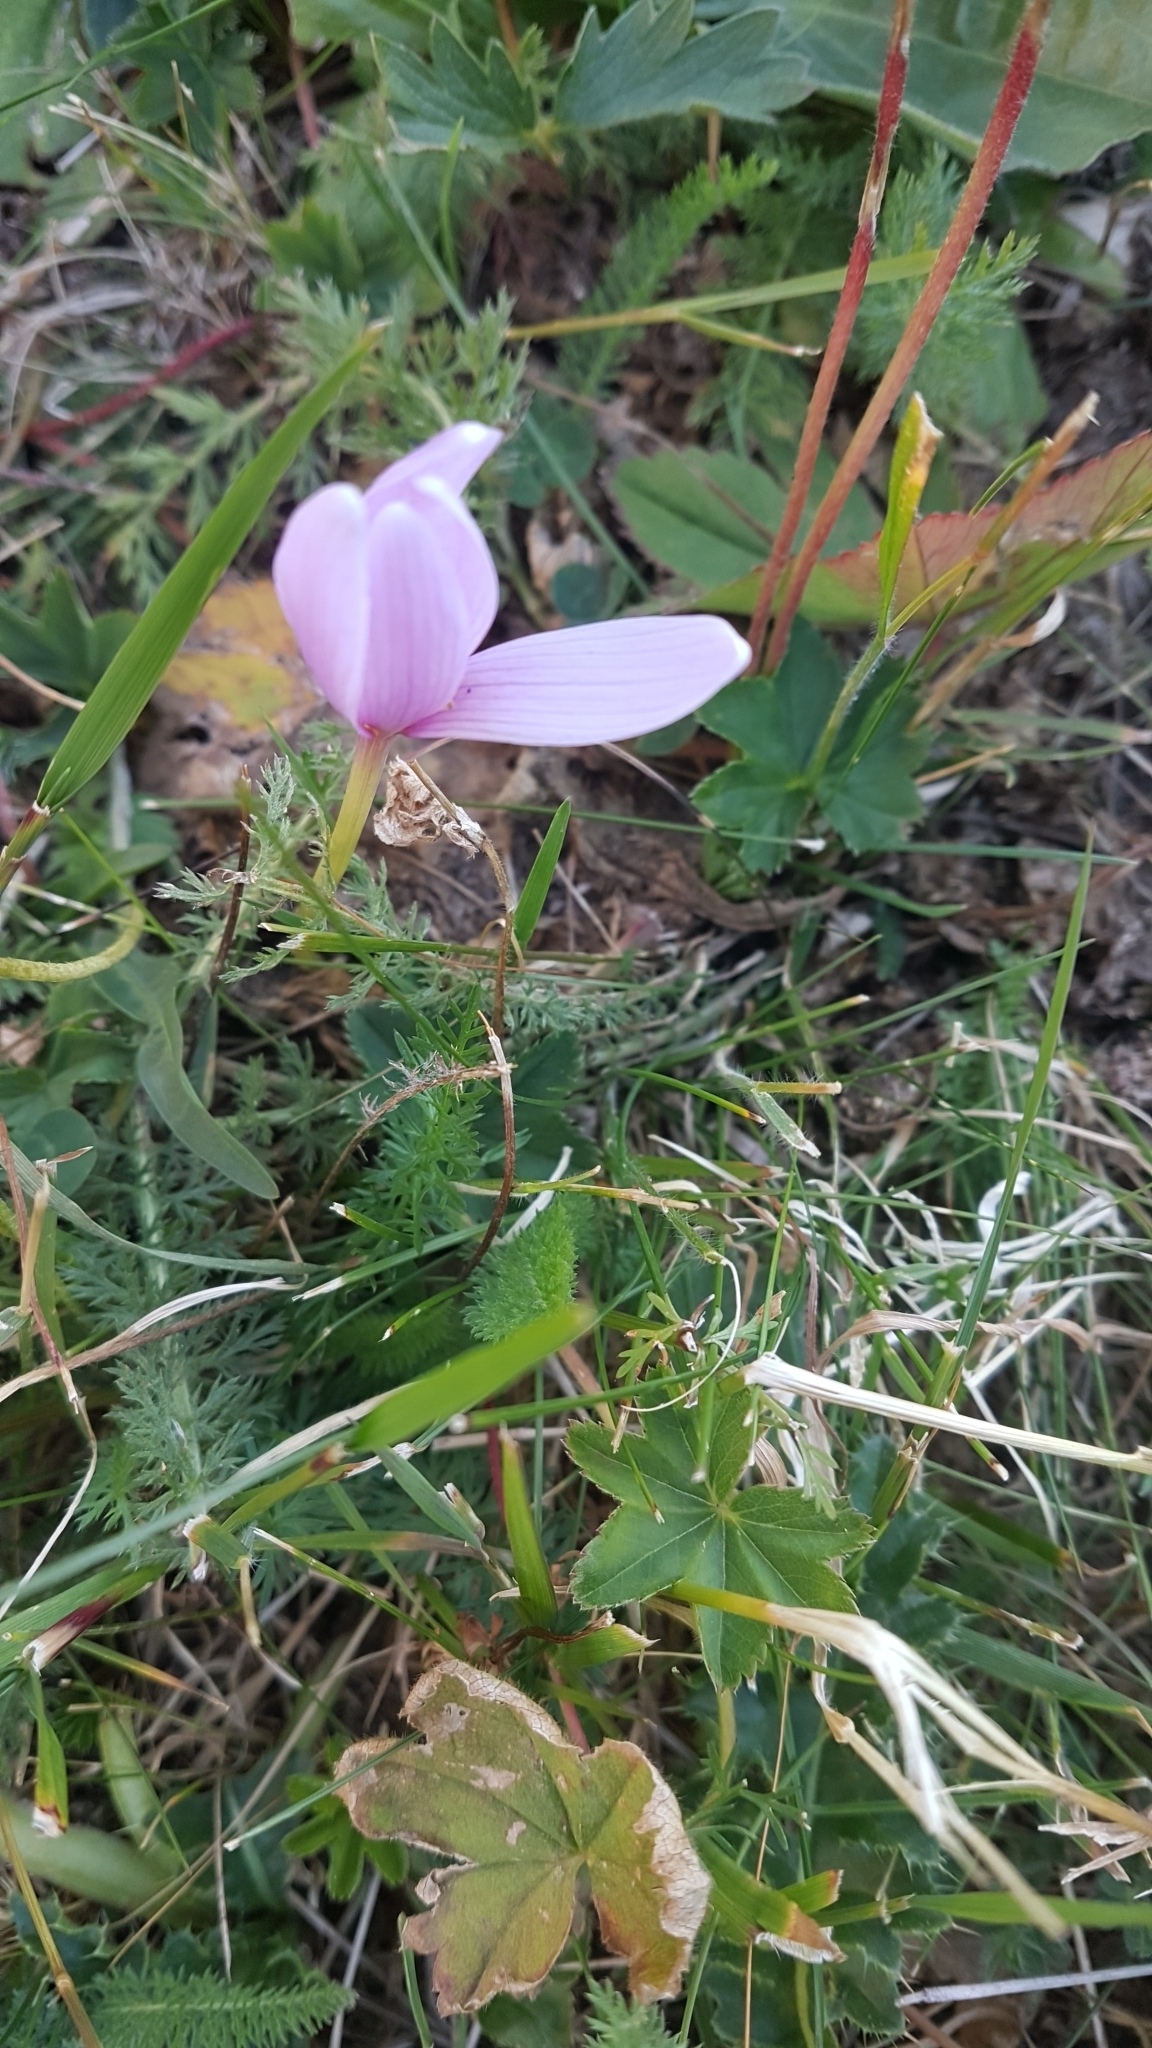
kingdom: Plantae
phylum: Tracheophyta
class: Liliopsida
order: Liliales
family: Colchicaceae
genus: Colchicum
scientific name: Colchicum alpinum
